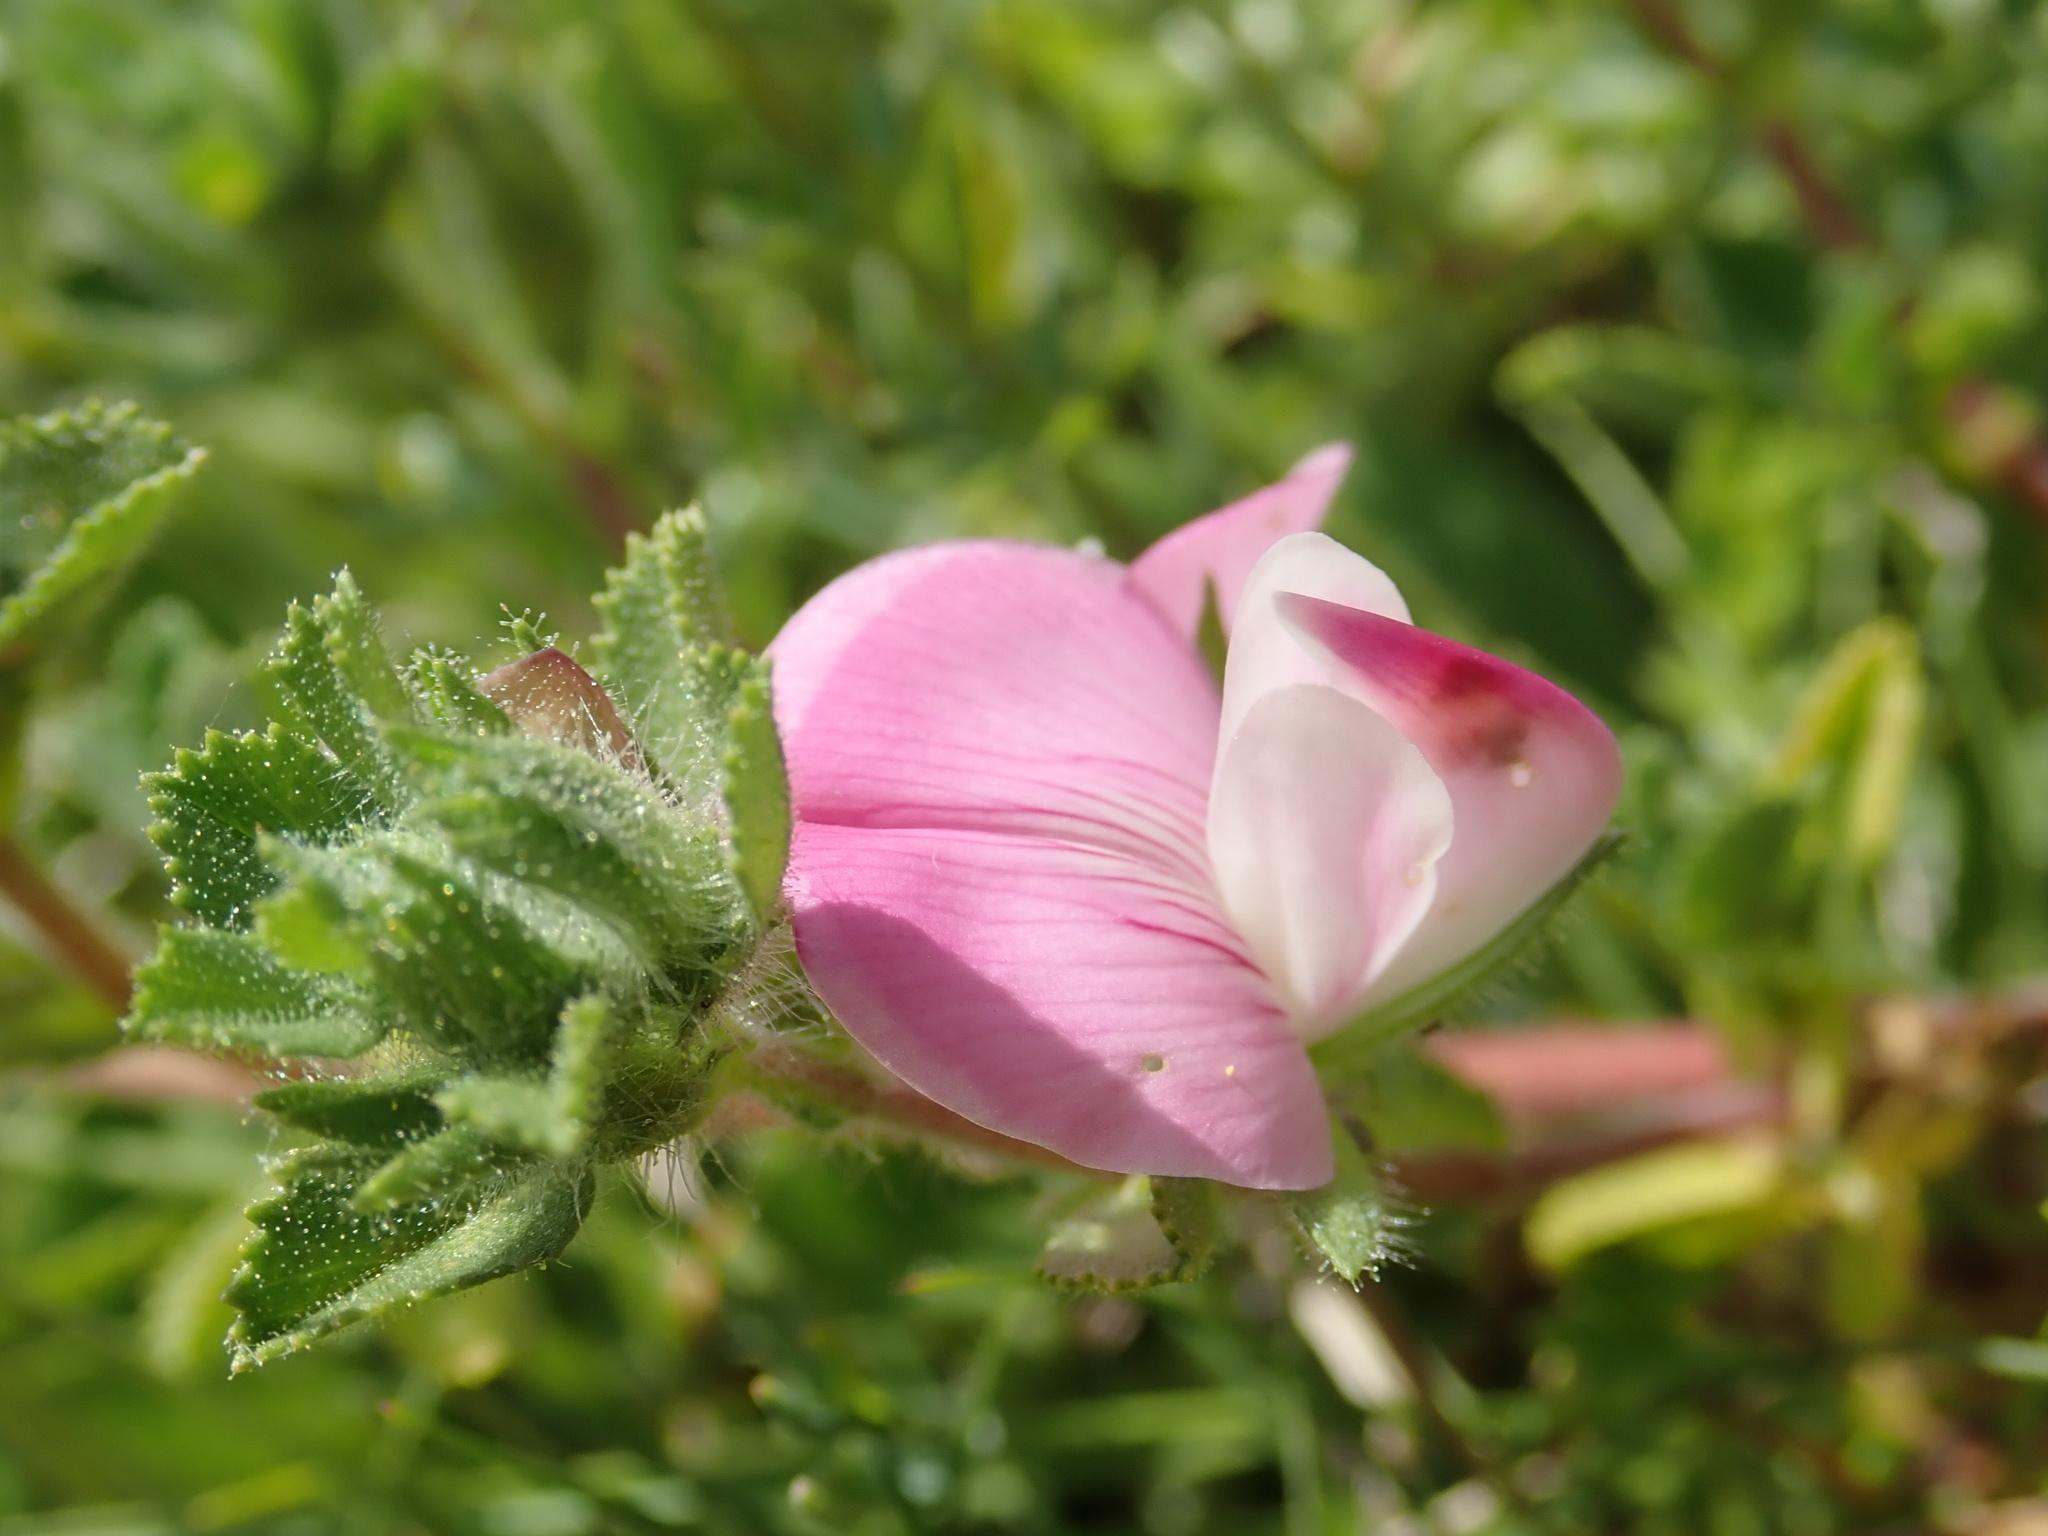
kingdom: Plantae
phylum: Tracheophyta
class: Magnoliopsida
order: Fabales
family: Fabaceae
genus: Ononis
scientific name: Ononis spinosa
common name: Spiny restharrow
